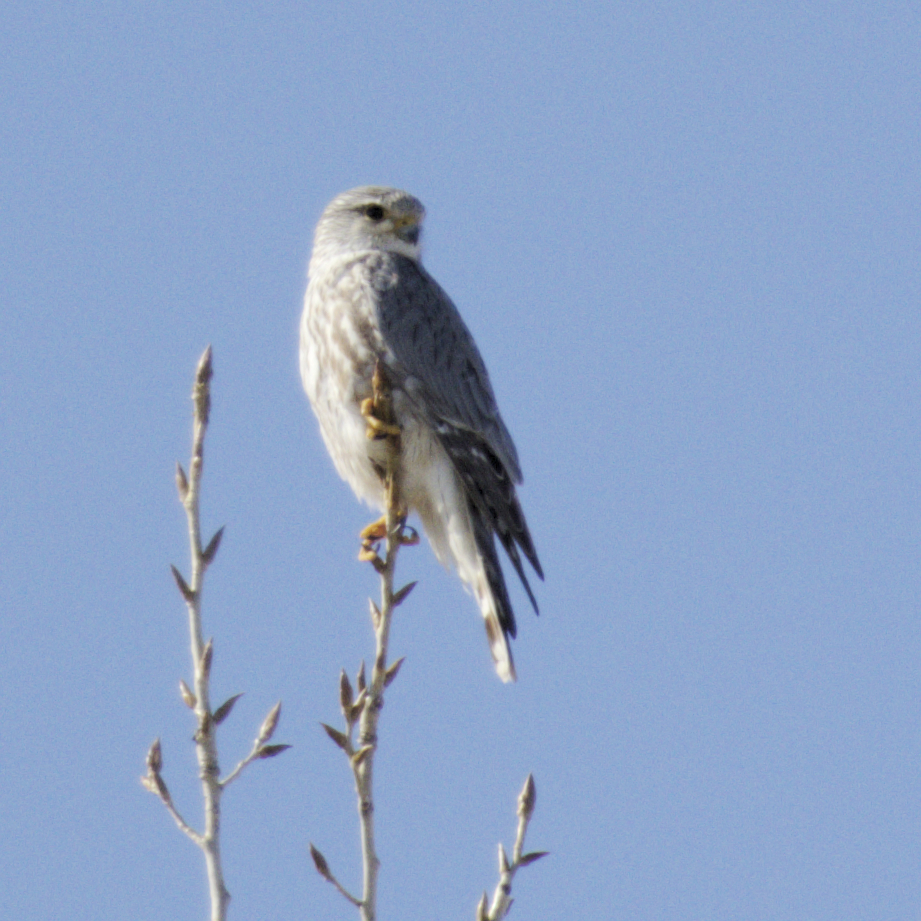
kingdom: Animalia
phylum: Chordata
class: Aves
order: Falconiformes
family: Falconidae
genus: Falco
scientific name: Falco columbarius
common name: Merlin
